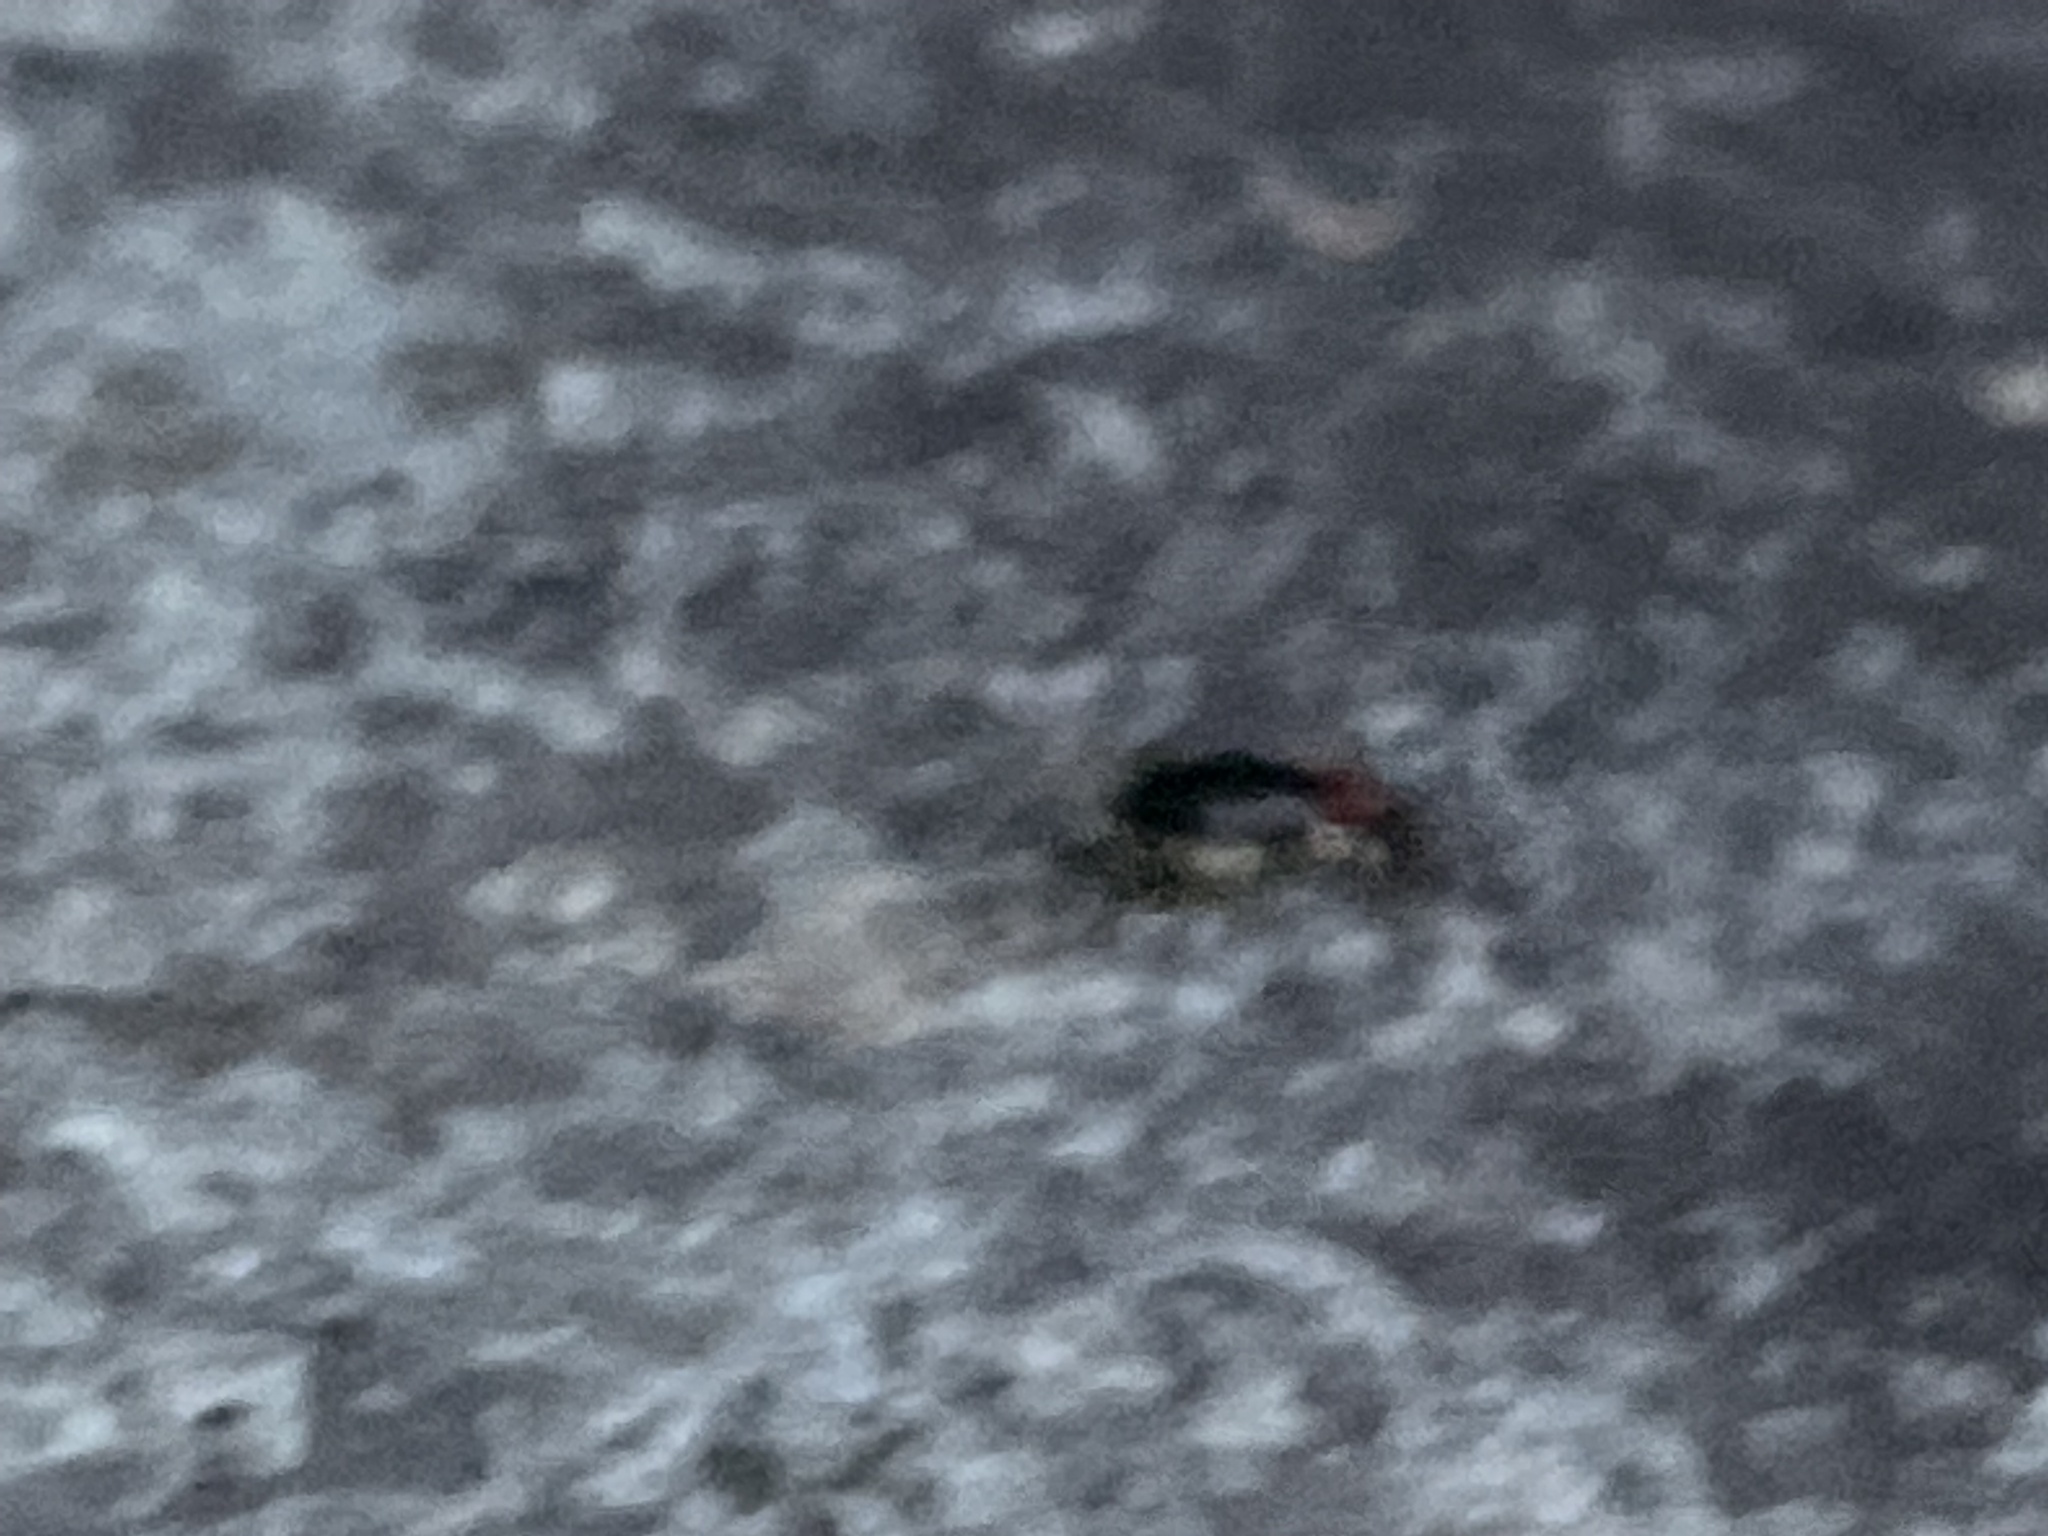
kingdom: Animalia
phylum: Arthropoda
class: Insecta
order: Orthoptera
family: Trigonidiidae
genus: Phyllopalpus
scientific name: Phyllopalpus pulchellus
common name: Handsome trig
